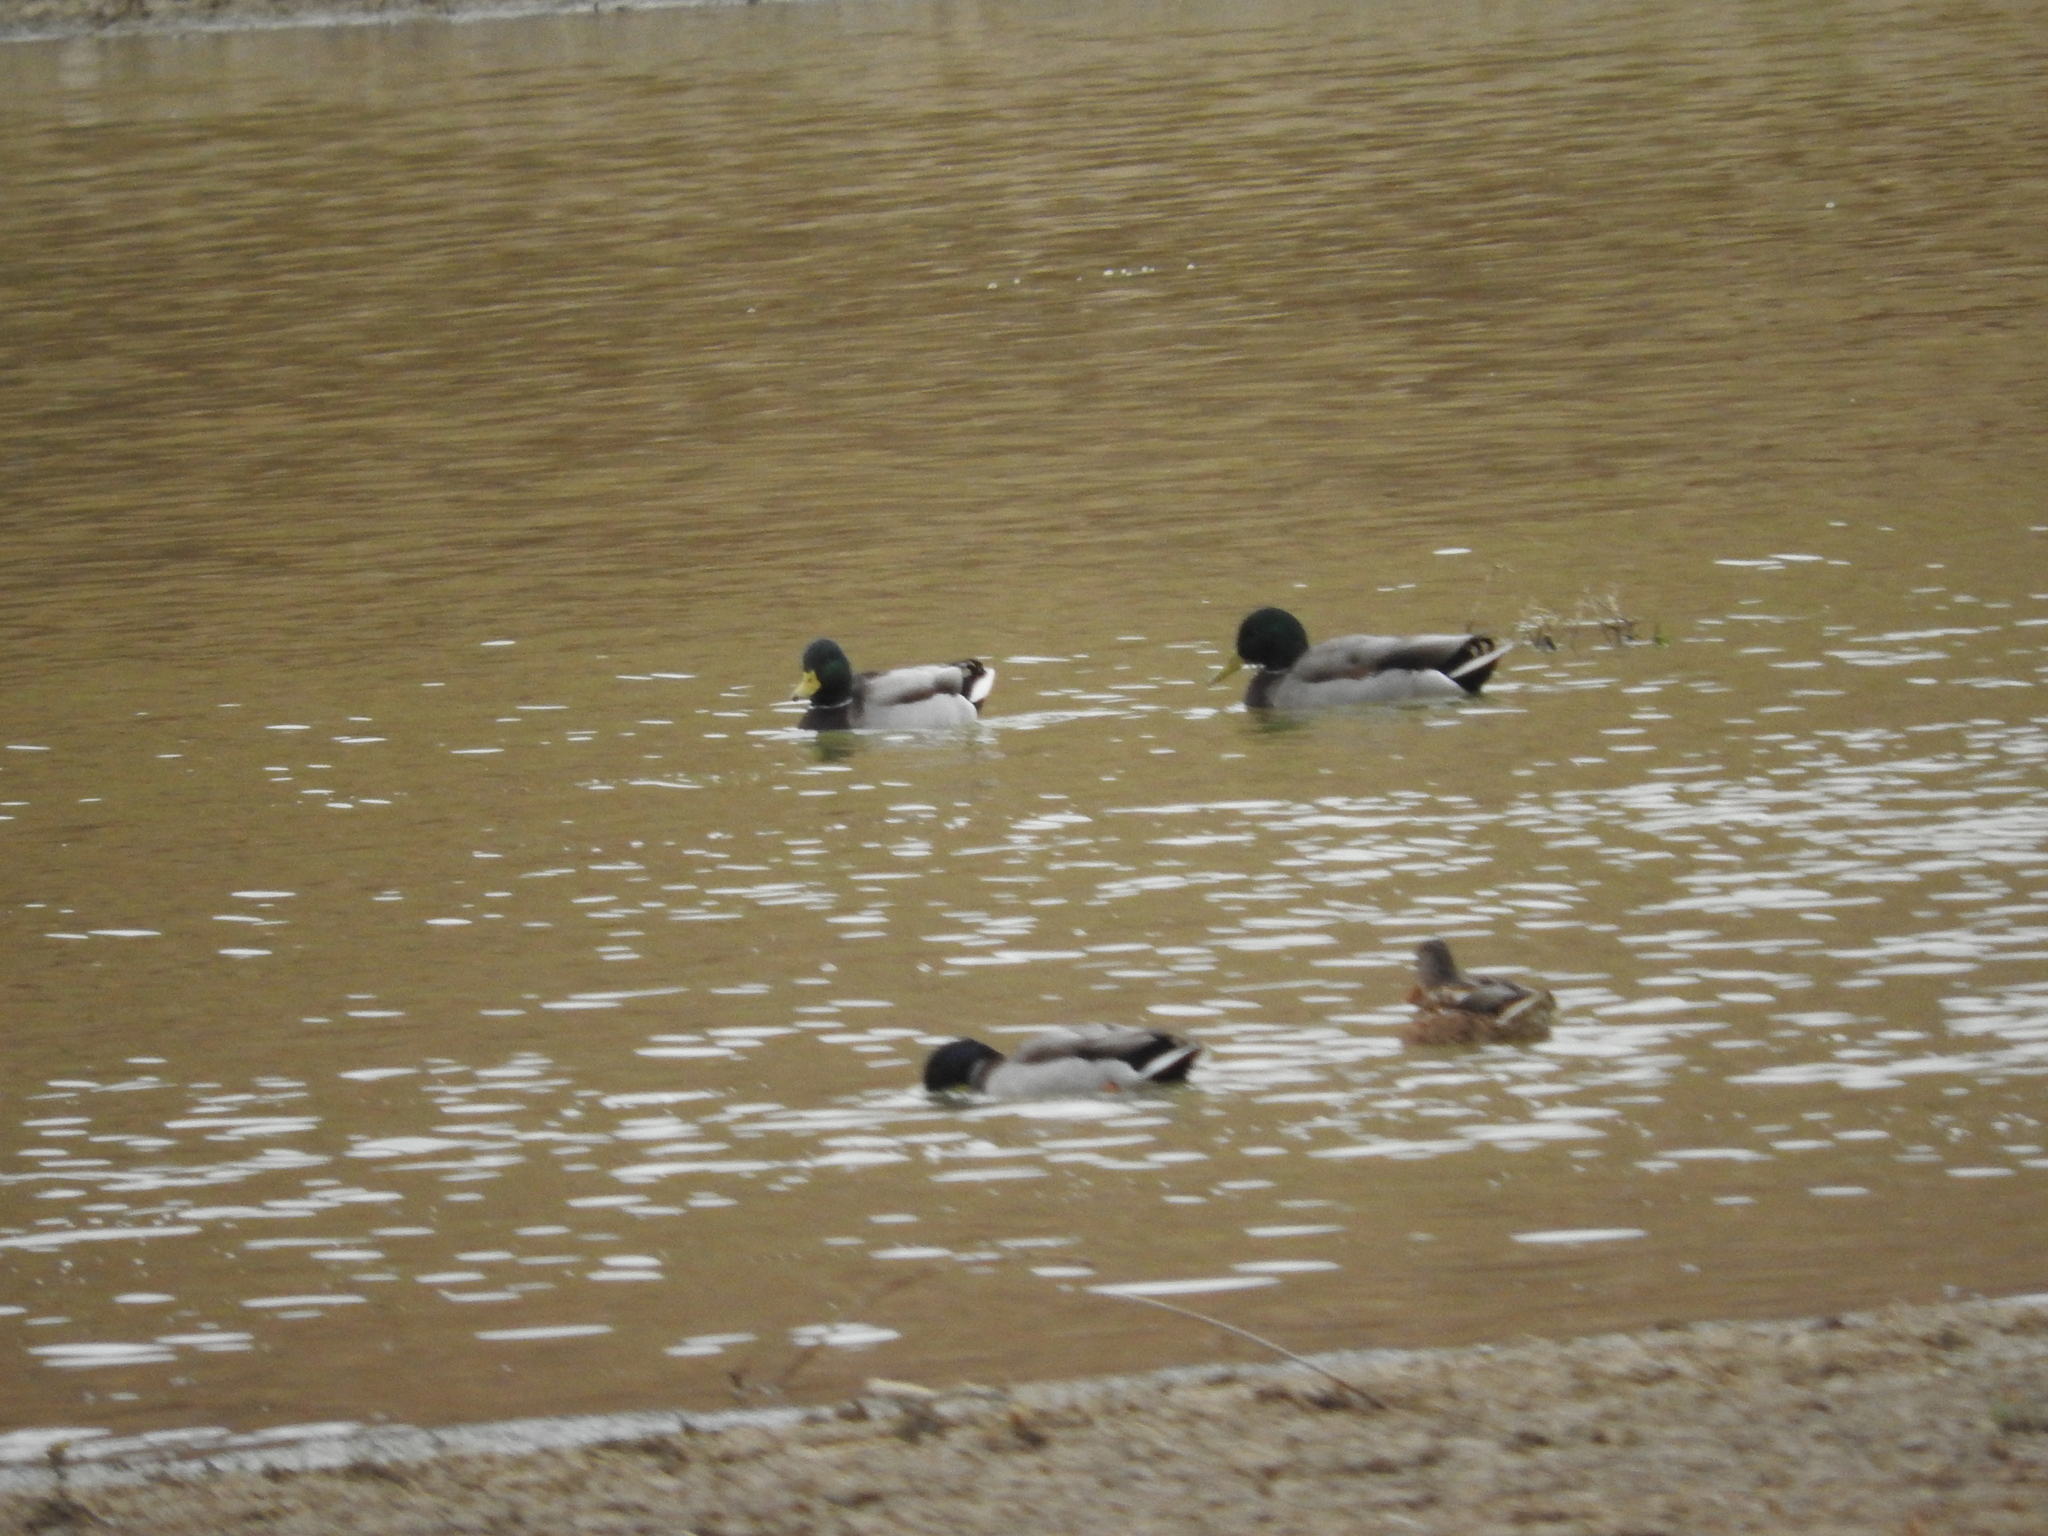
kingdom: Animalia
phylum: Chordata
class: Aves
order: Anseriformes
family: Anatidae
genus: Anas
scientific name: Anas platyrhynchos
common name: Mallard
